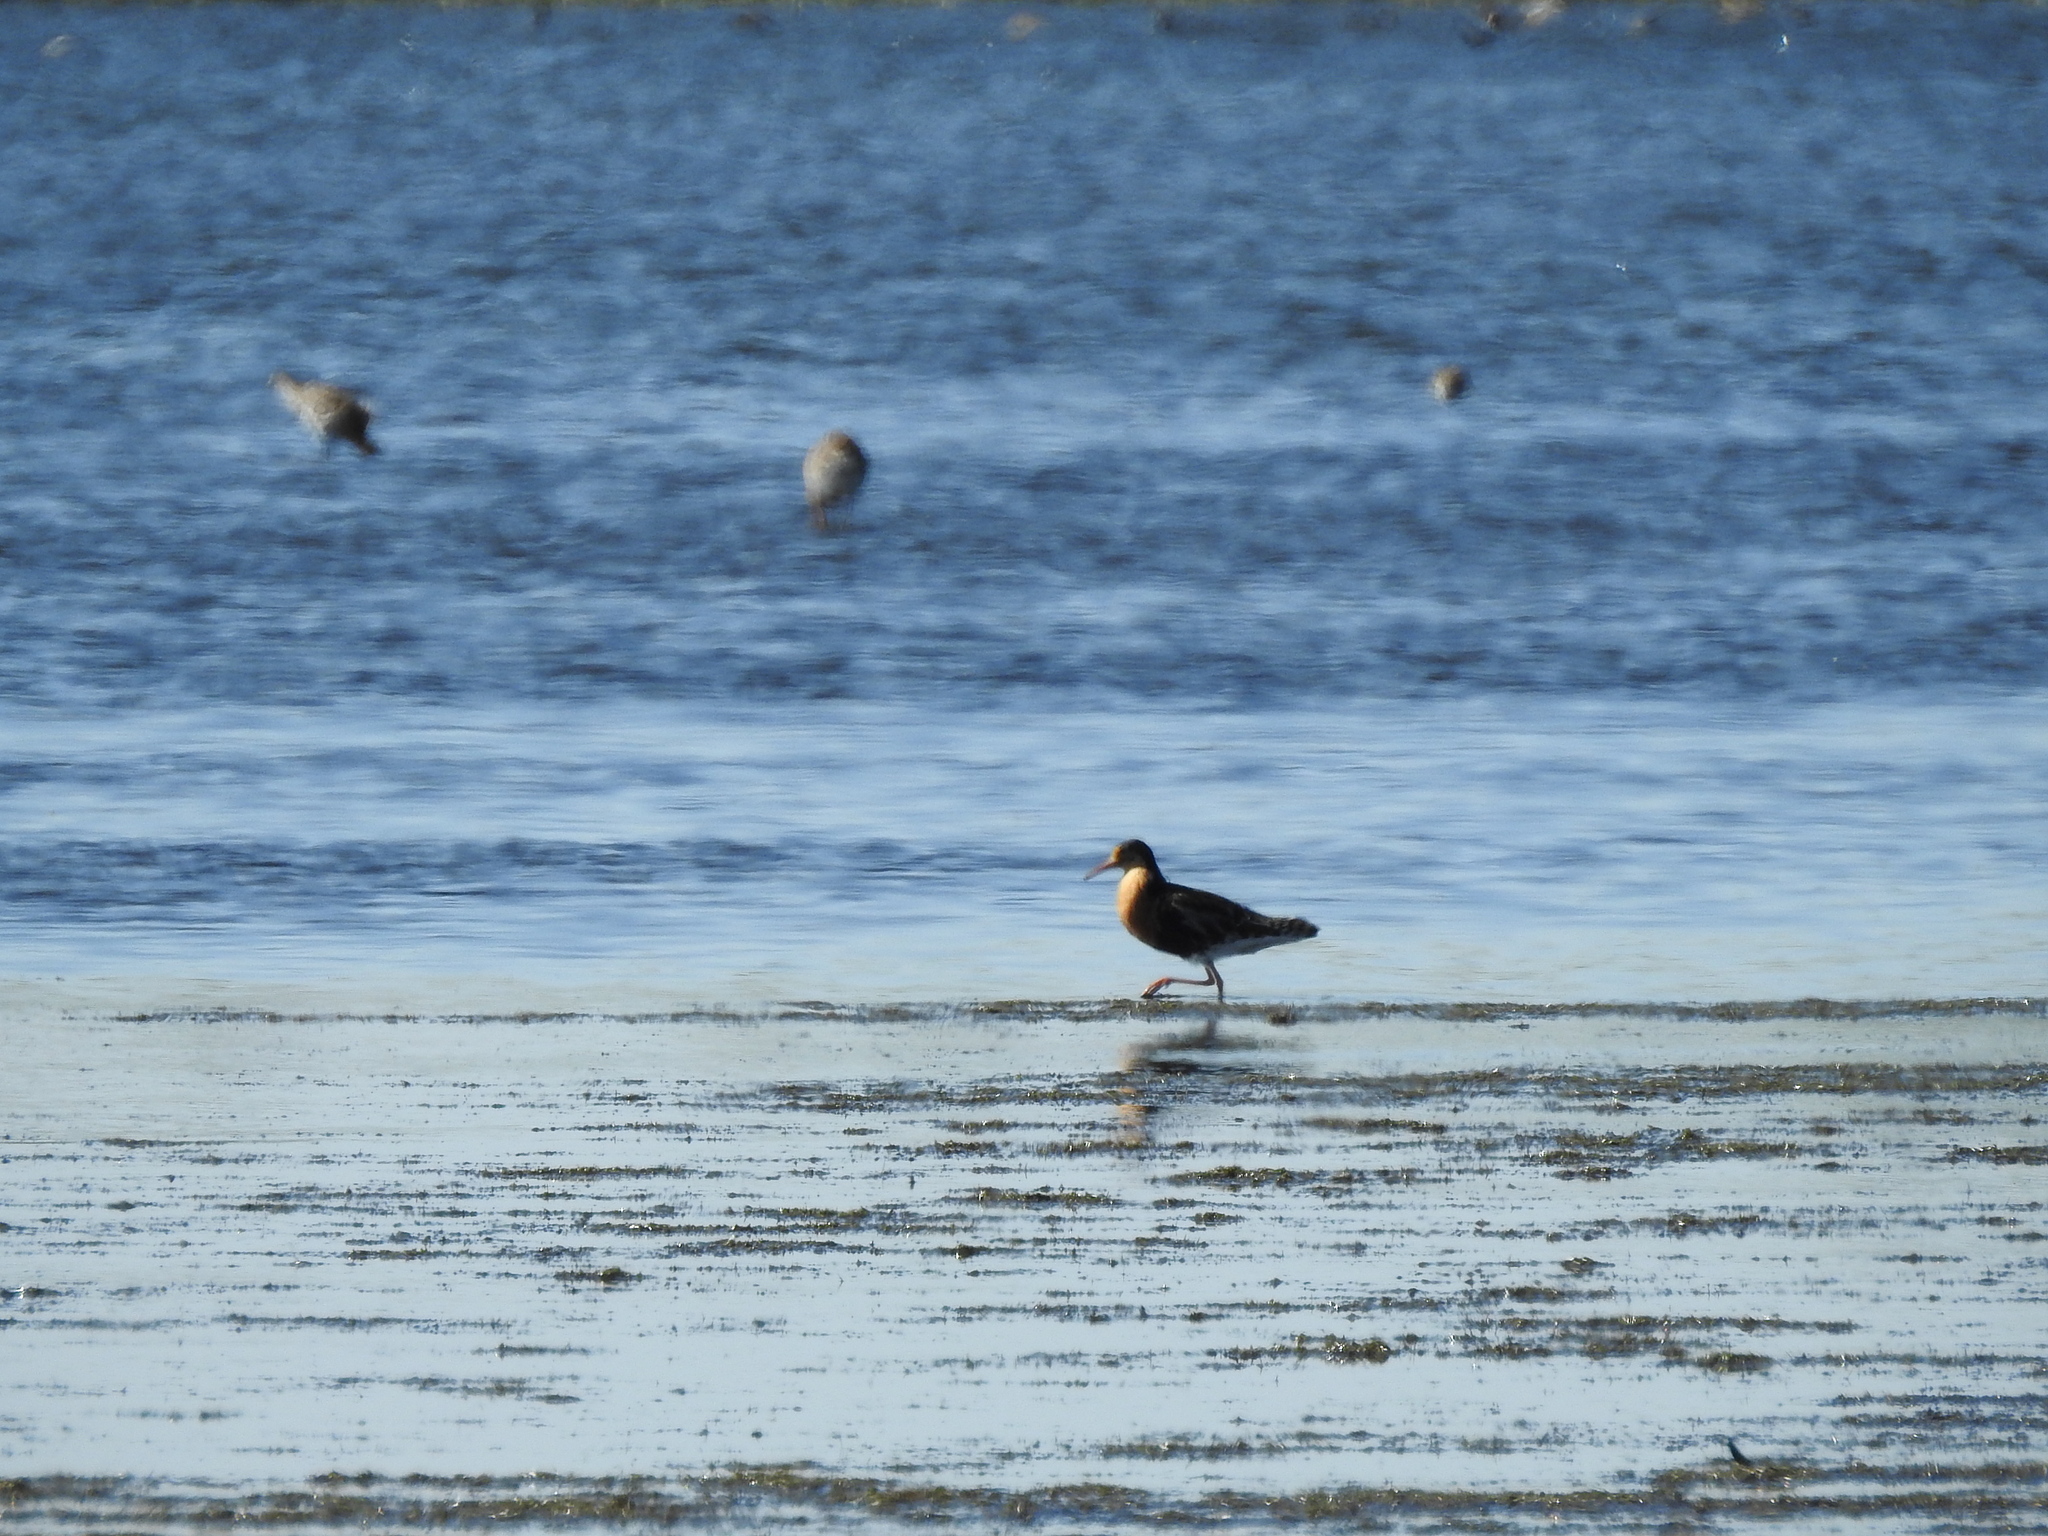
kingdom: Animalia
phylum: Chordata
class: Aves
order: Charadriiformes
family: Scolopacidae
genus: Calidris
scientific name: Calidris pugnax
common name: Ruff
